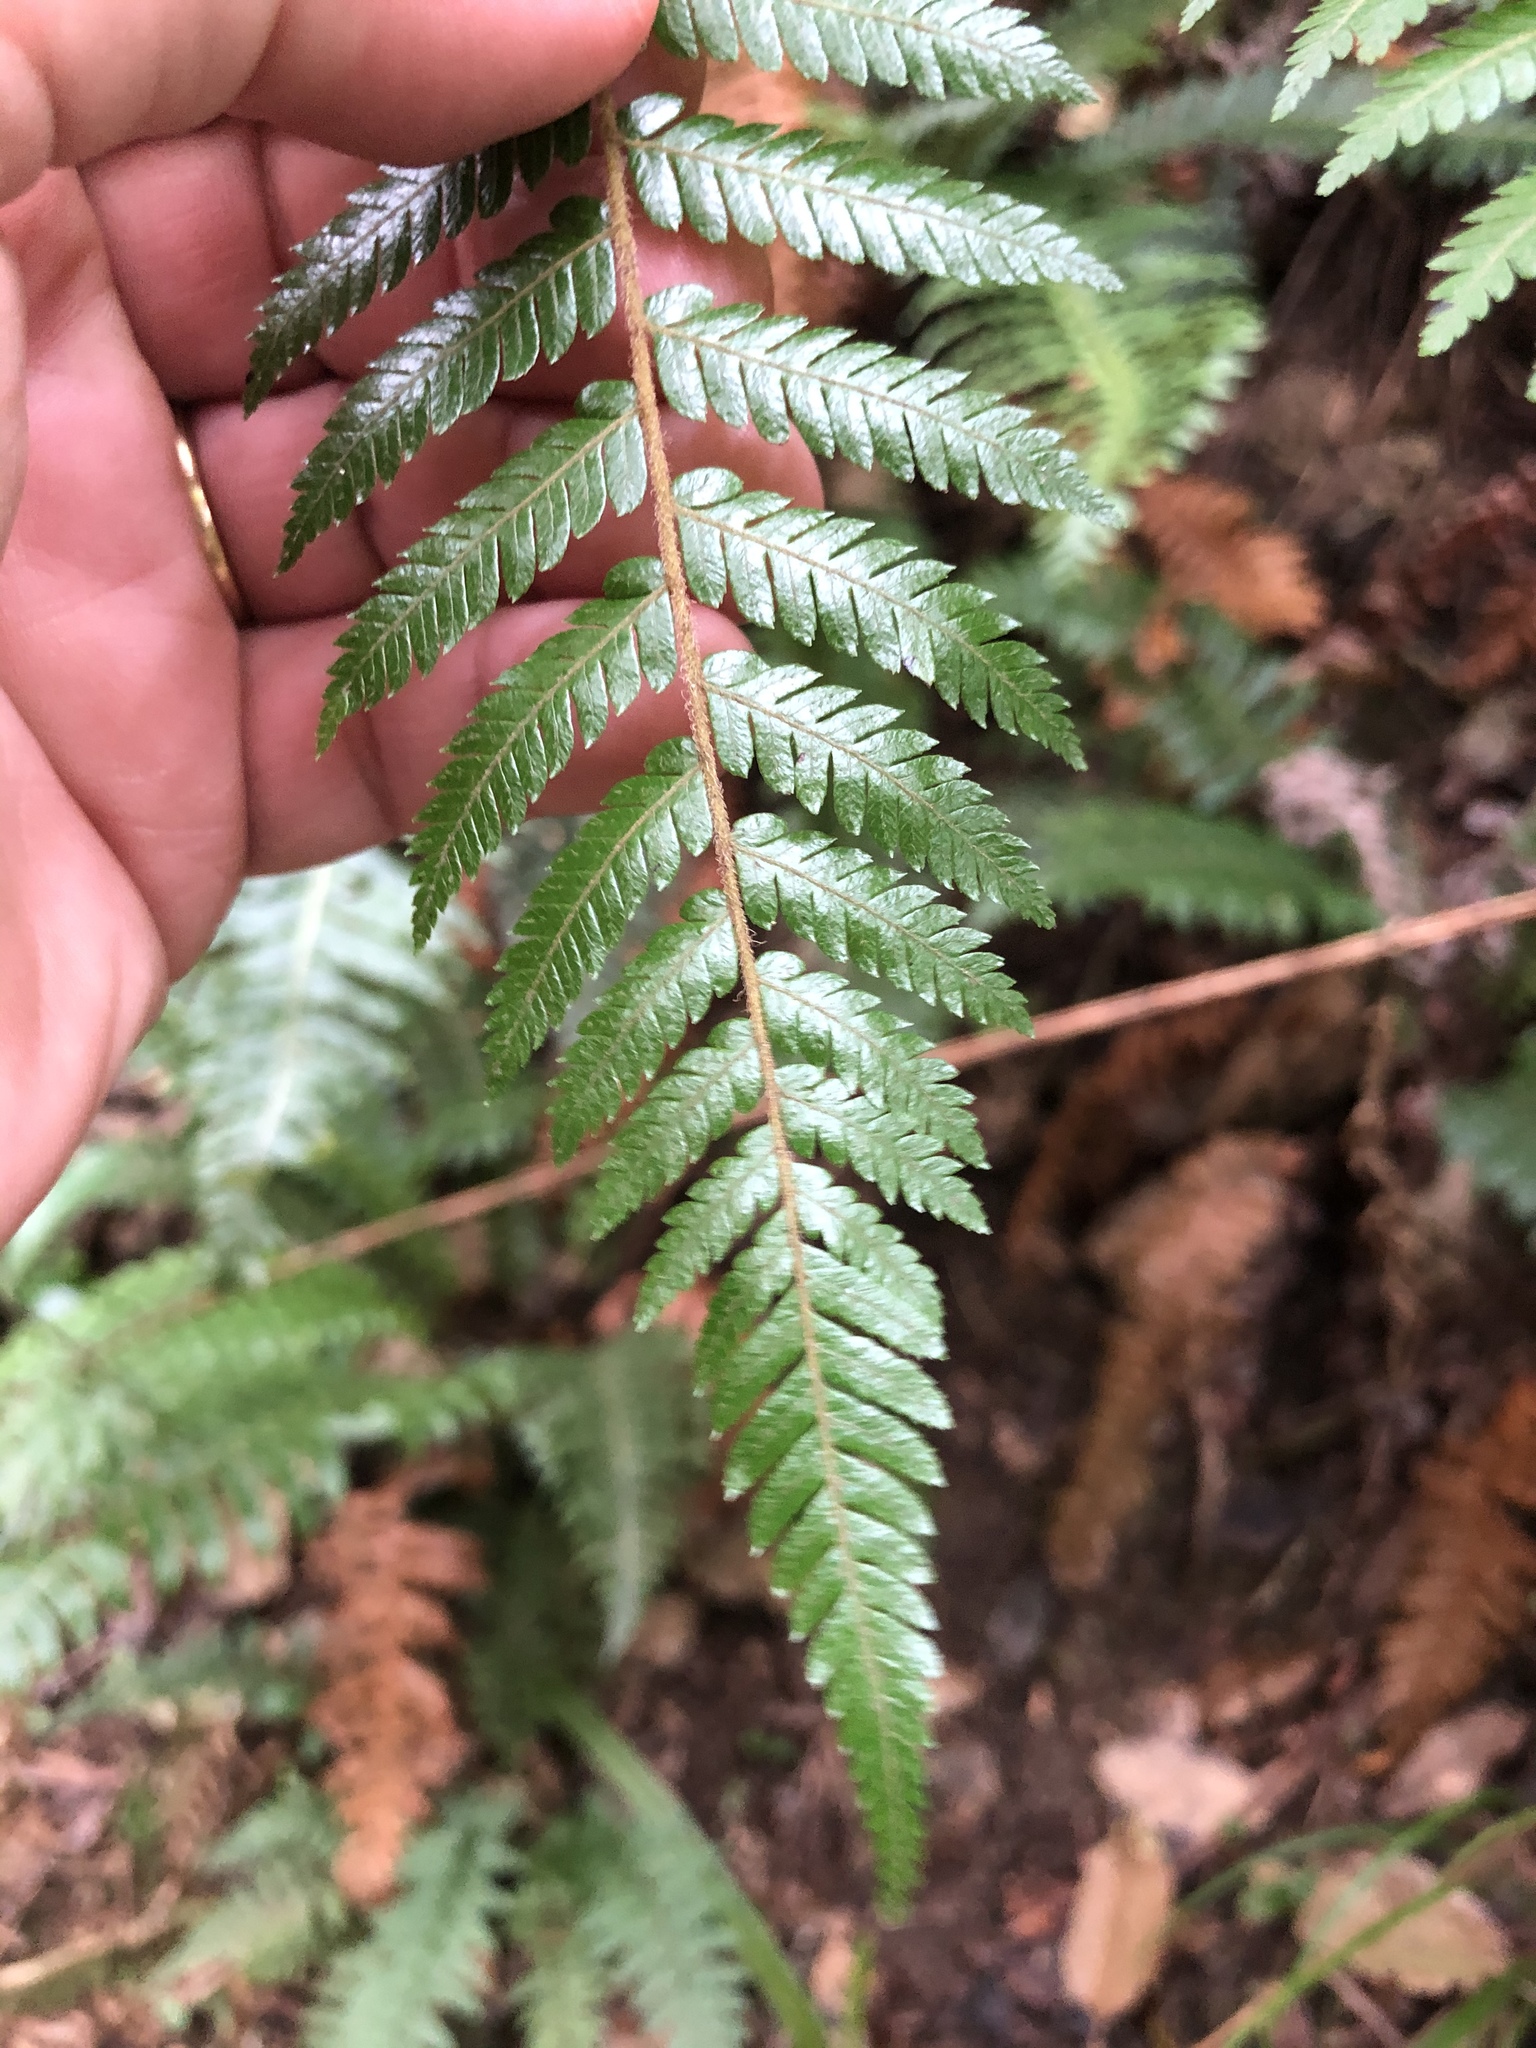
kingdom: Plantae
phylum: Tracheophyta
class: Polypodiopsida
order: Cyatheales
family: Cyatheaceae
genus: Alsophila
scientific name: Alsophila smithii
